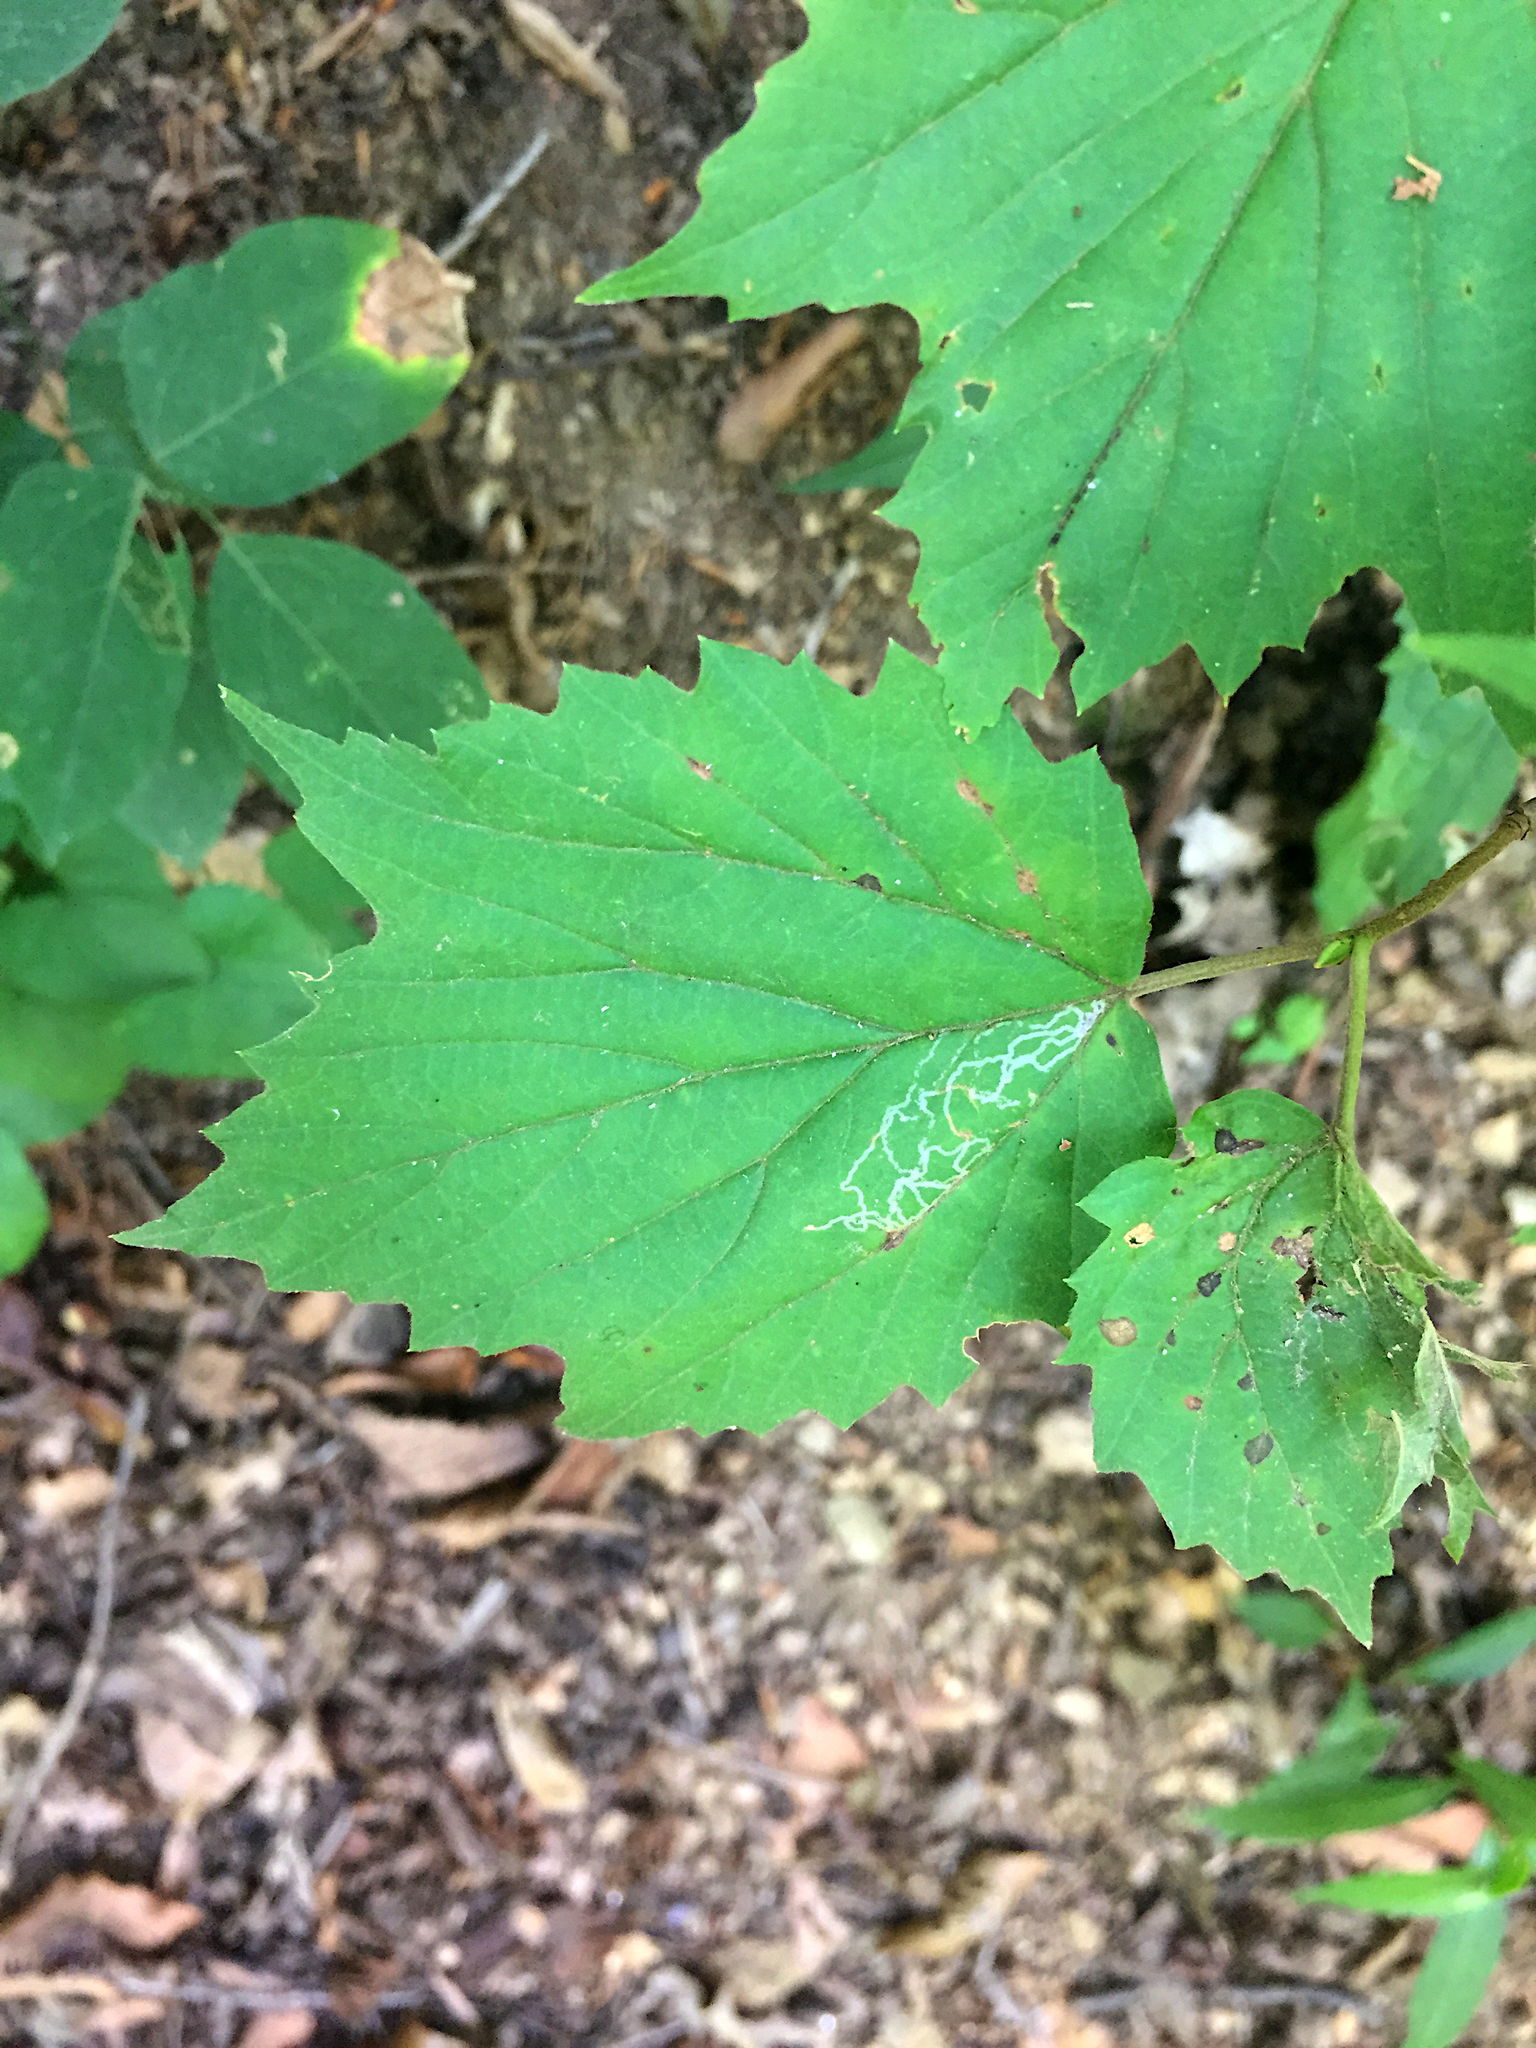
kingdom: Animalia
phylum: Arthropoda
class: Insecta
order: Lepidoptera
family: Gracillariidae
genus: Marmara
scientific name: Marmara viburnella
